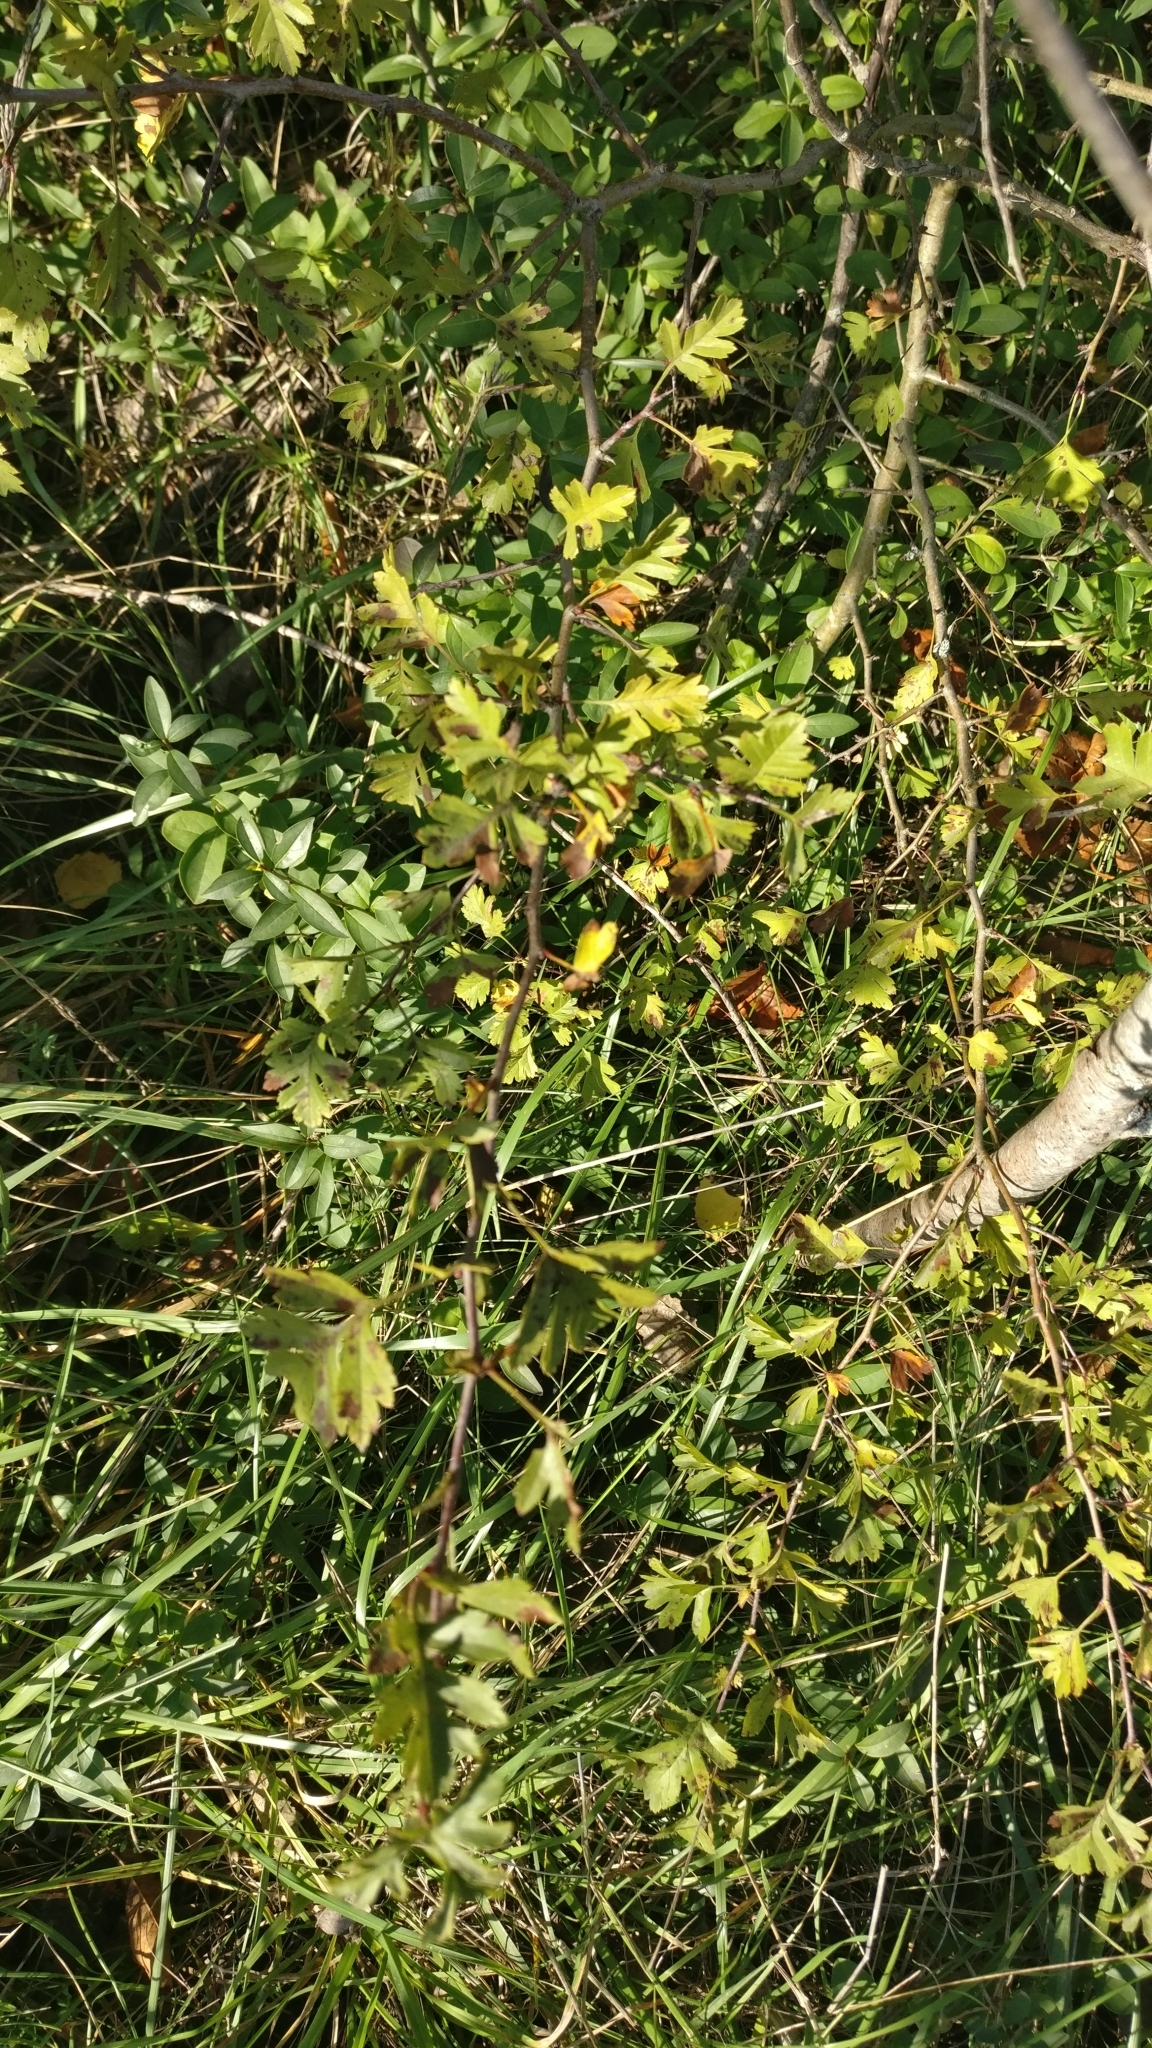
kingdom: Plantae
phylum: Tracheophyta
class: Magnoliopsida
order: Rosales
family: Rosaceae
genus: Crataegus
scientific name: Crataegus monogyna
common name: Hawthorn
